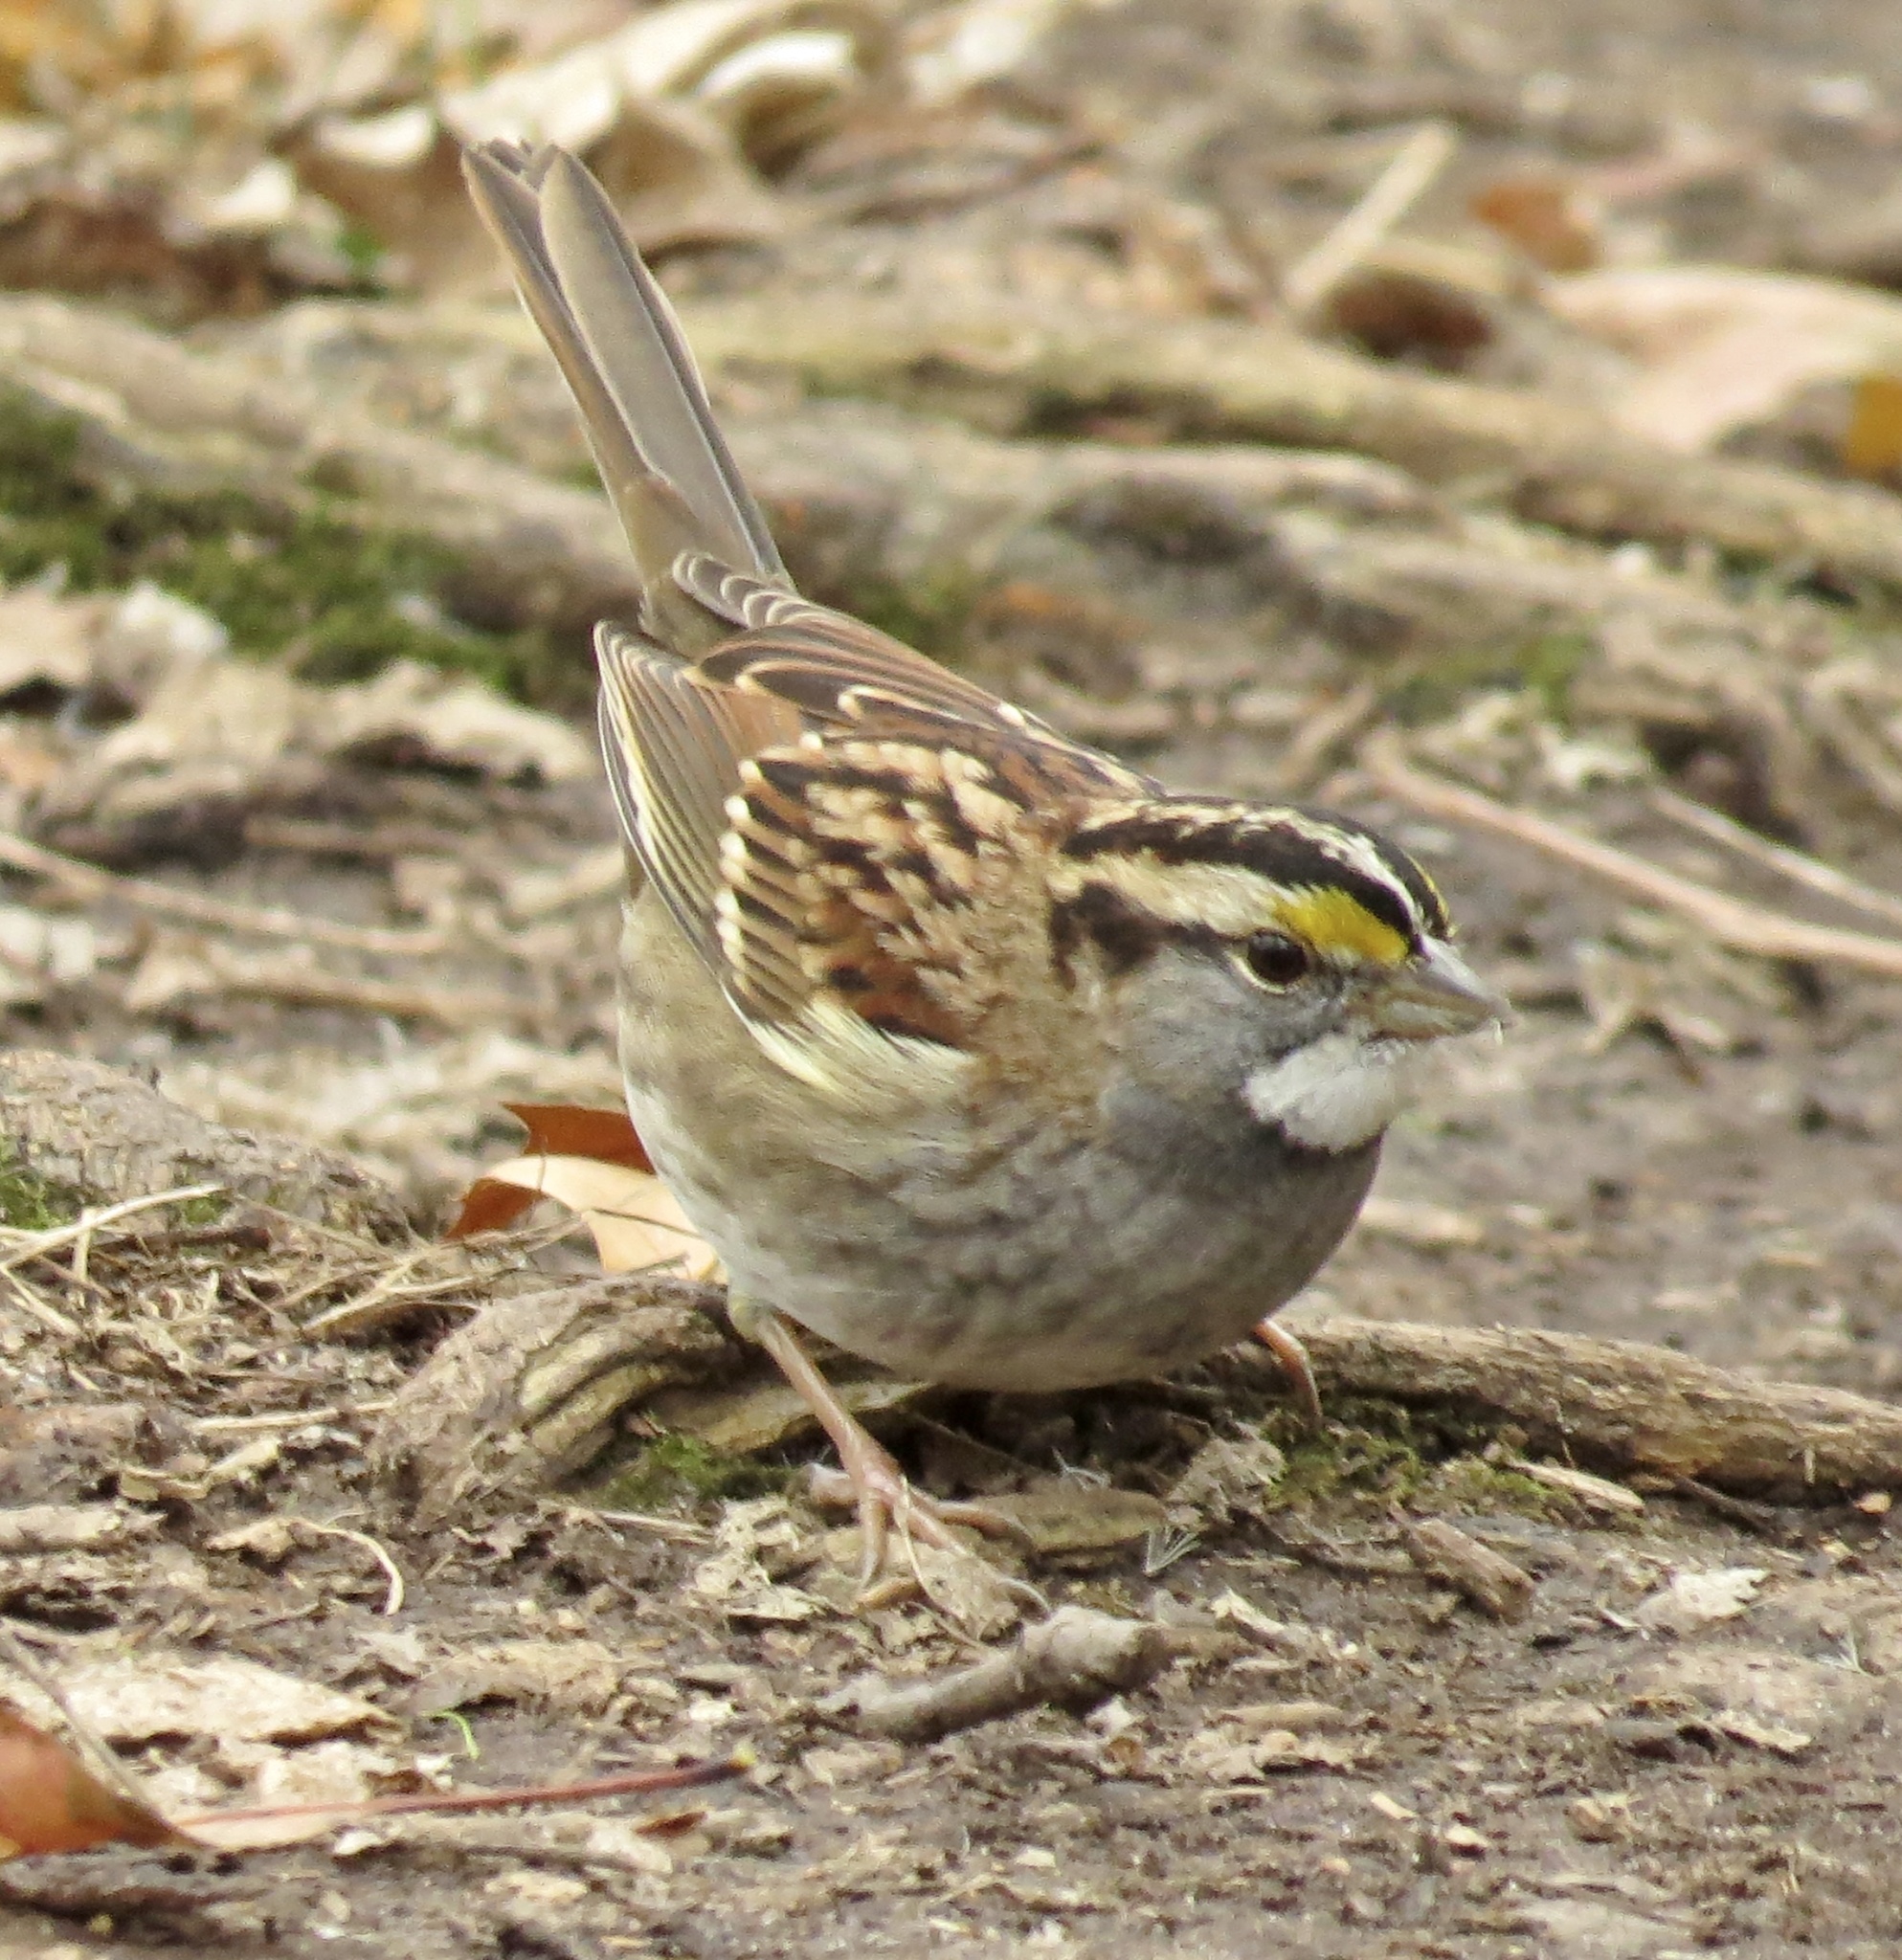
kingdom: Animalia
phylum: Chordata
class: Aves
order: Passeriformes
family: Passerellidae
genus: Zonotrichia
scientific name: Zonotrichia albicollis
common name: White-throated sparrow
